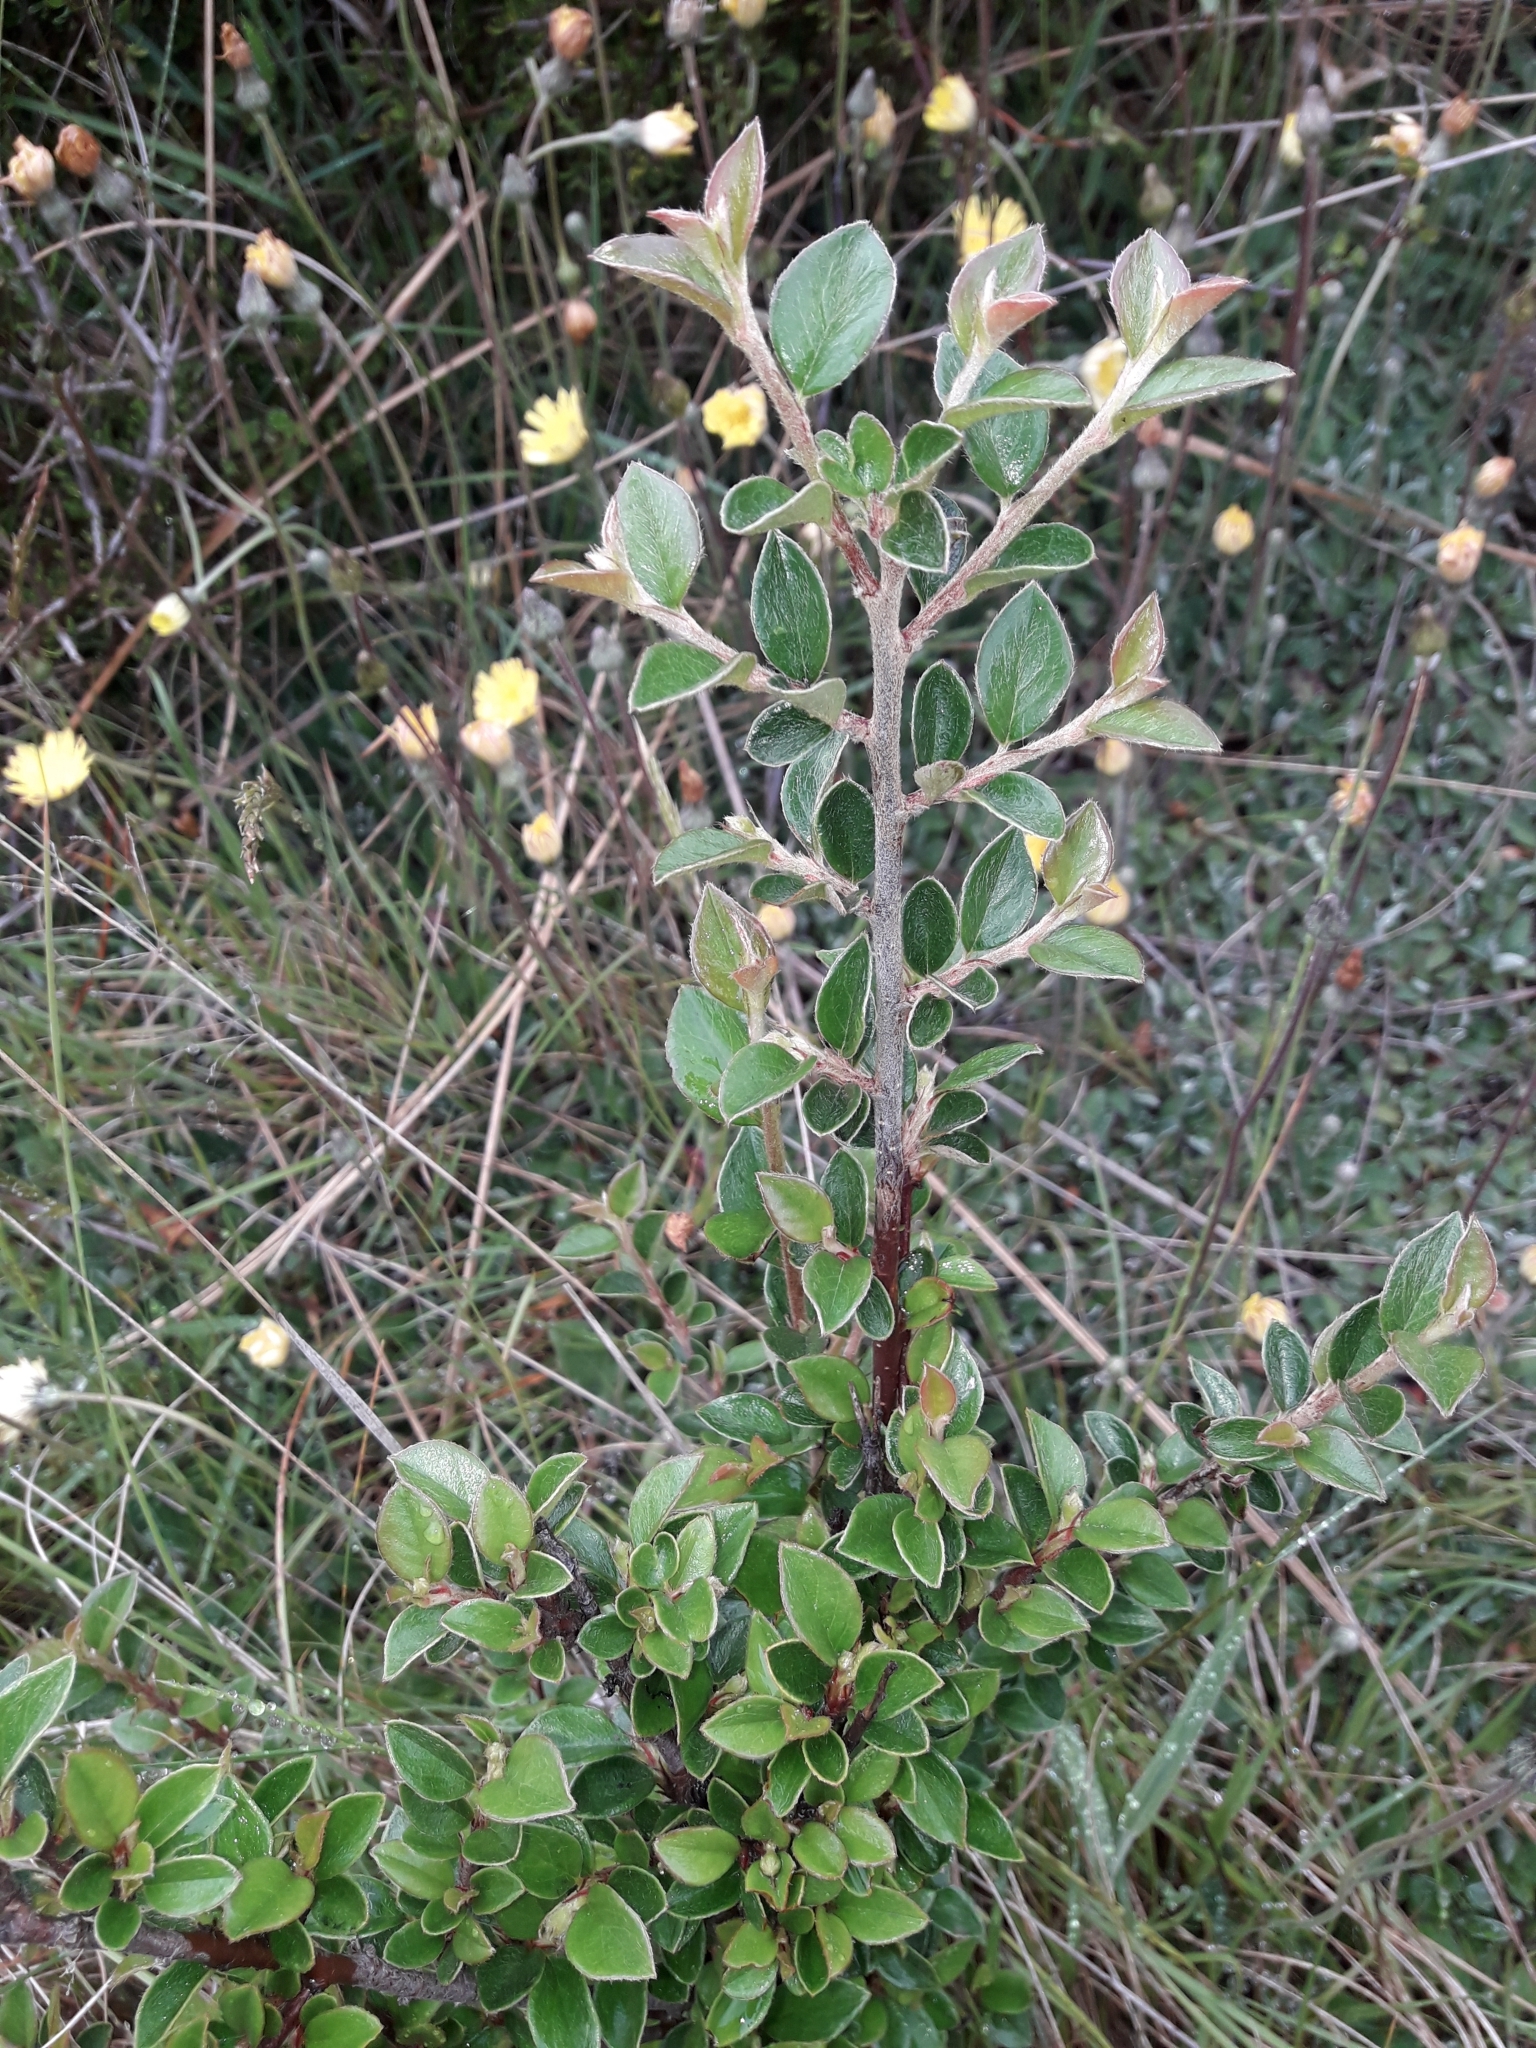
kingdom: Plantae
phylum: Tracheophyta
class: Magnoliopsida
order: Rosales
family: Rosaceae
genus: Cotoneaster
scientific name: Cotoneaster simonsii
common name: Himalayan cotoneaster
